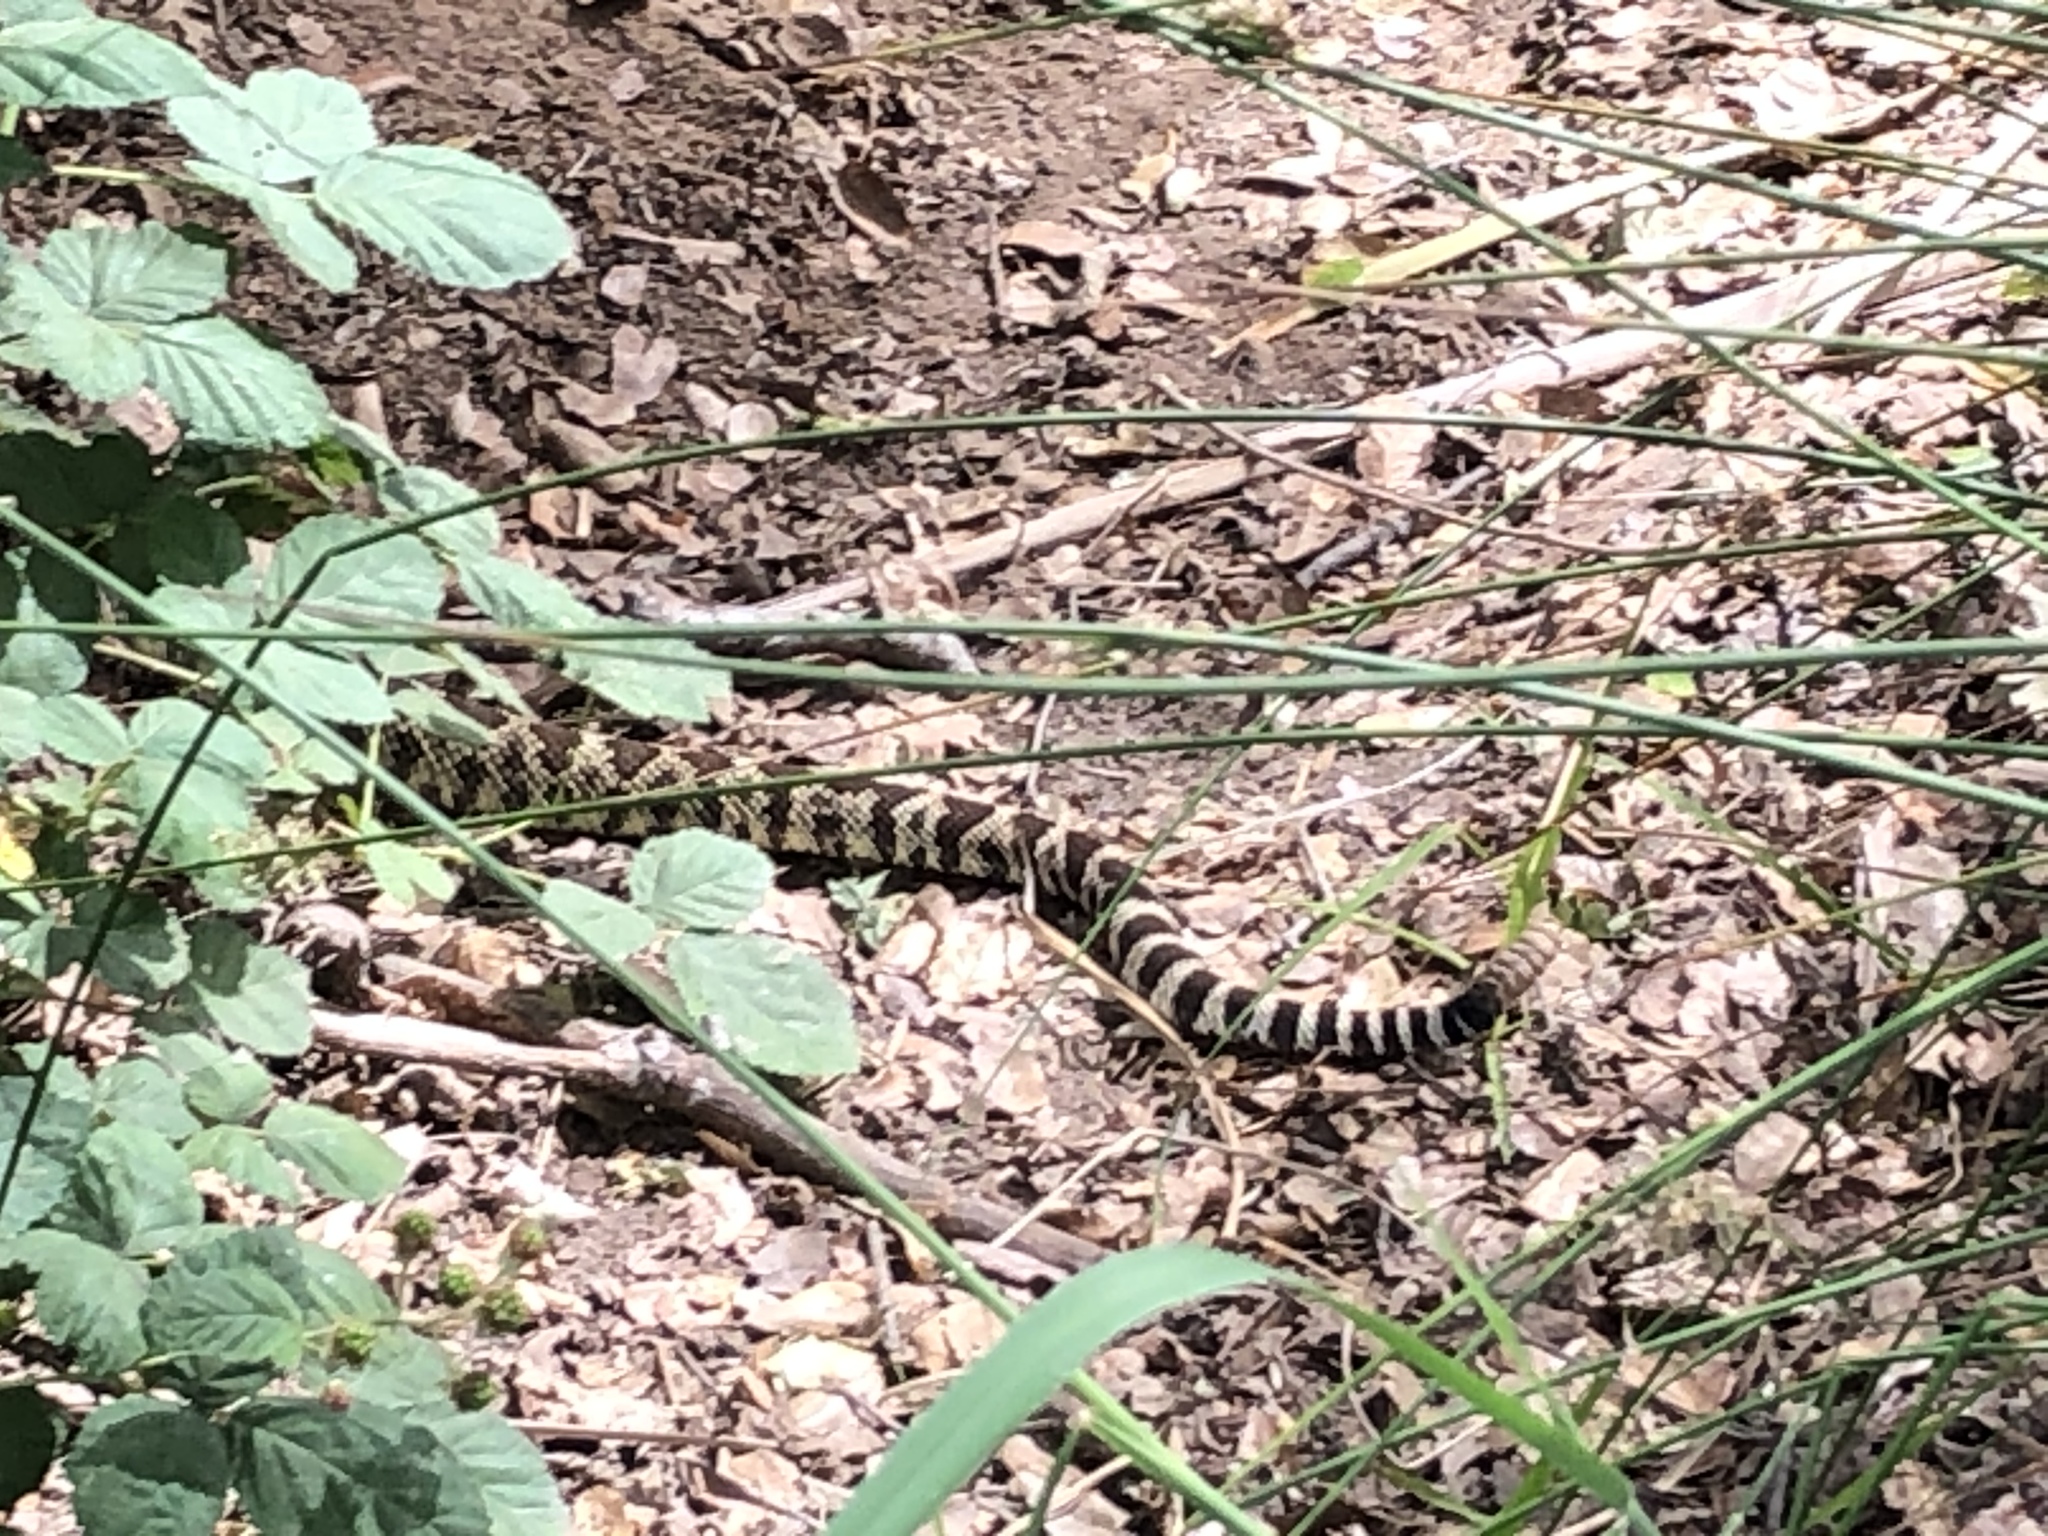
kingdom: Animalia
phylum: Chordata
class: Squamata
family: Viperidae
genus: Crotalus
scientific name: Crotalus oreganus
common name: Abyssus
